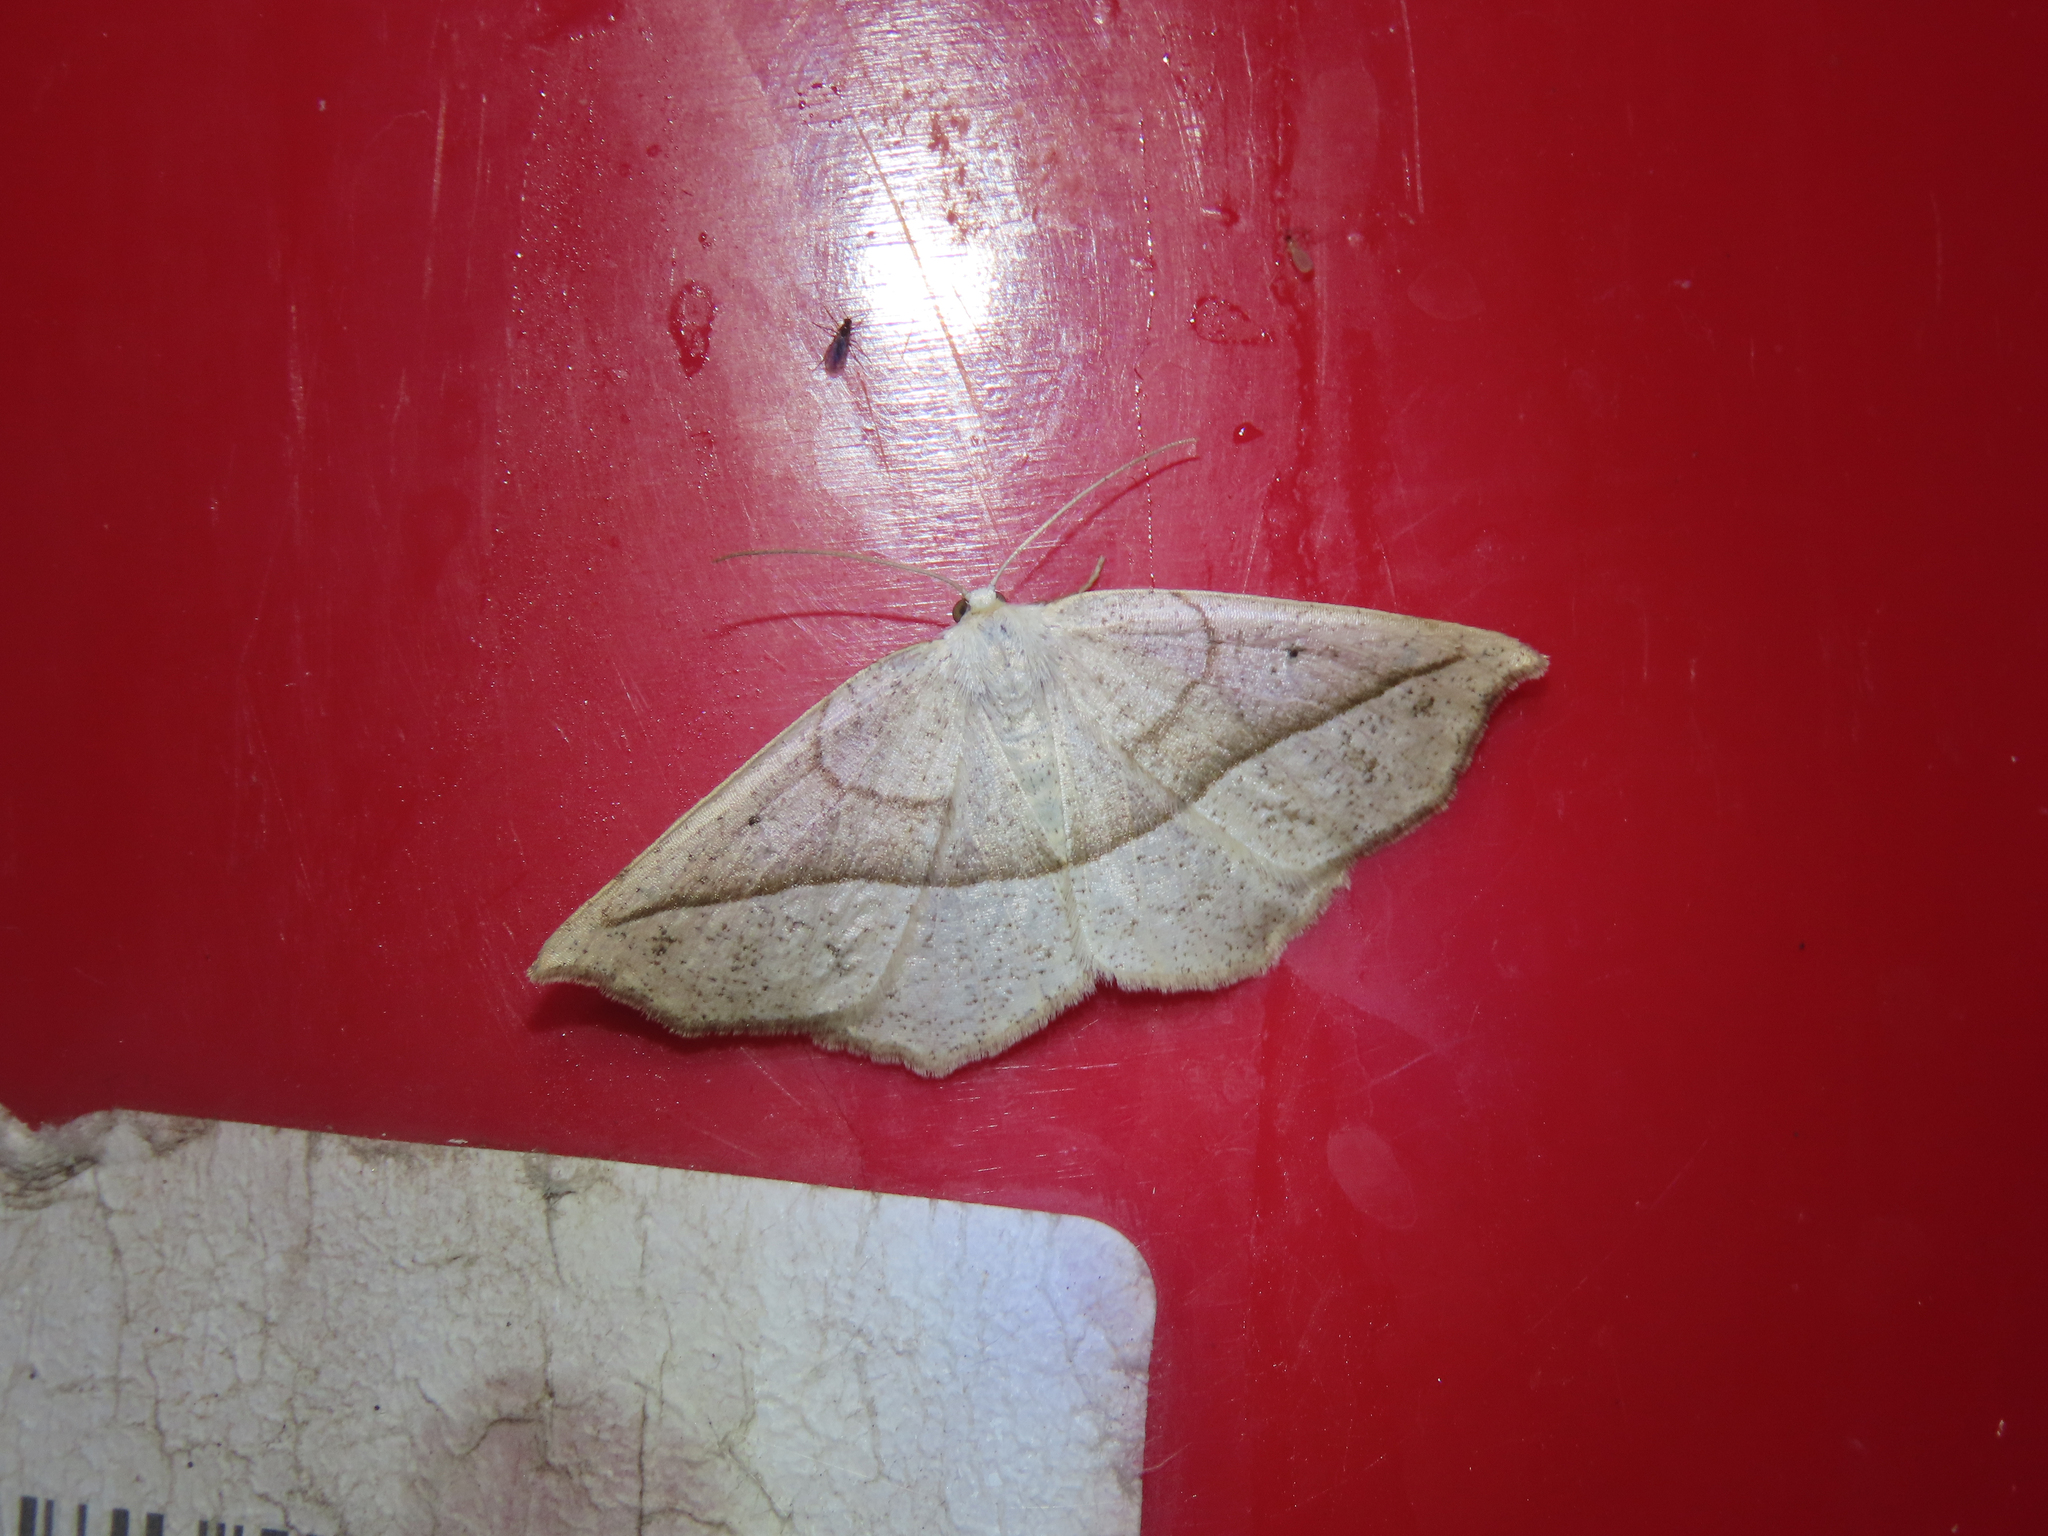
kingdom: Animalia
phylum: Arthropoda
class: Insecta
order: Lepidoptera
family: Geometridae
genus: Eusarca
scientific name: Eusarca confusaria
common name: Confused eusarca
